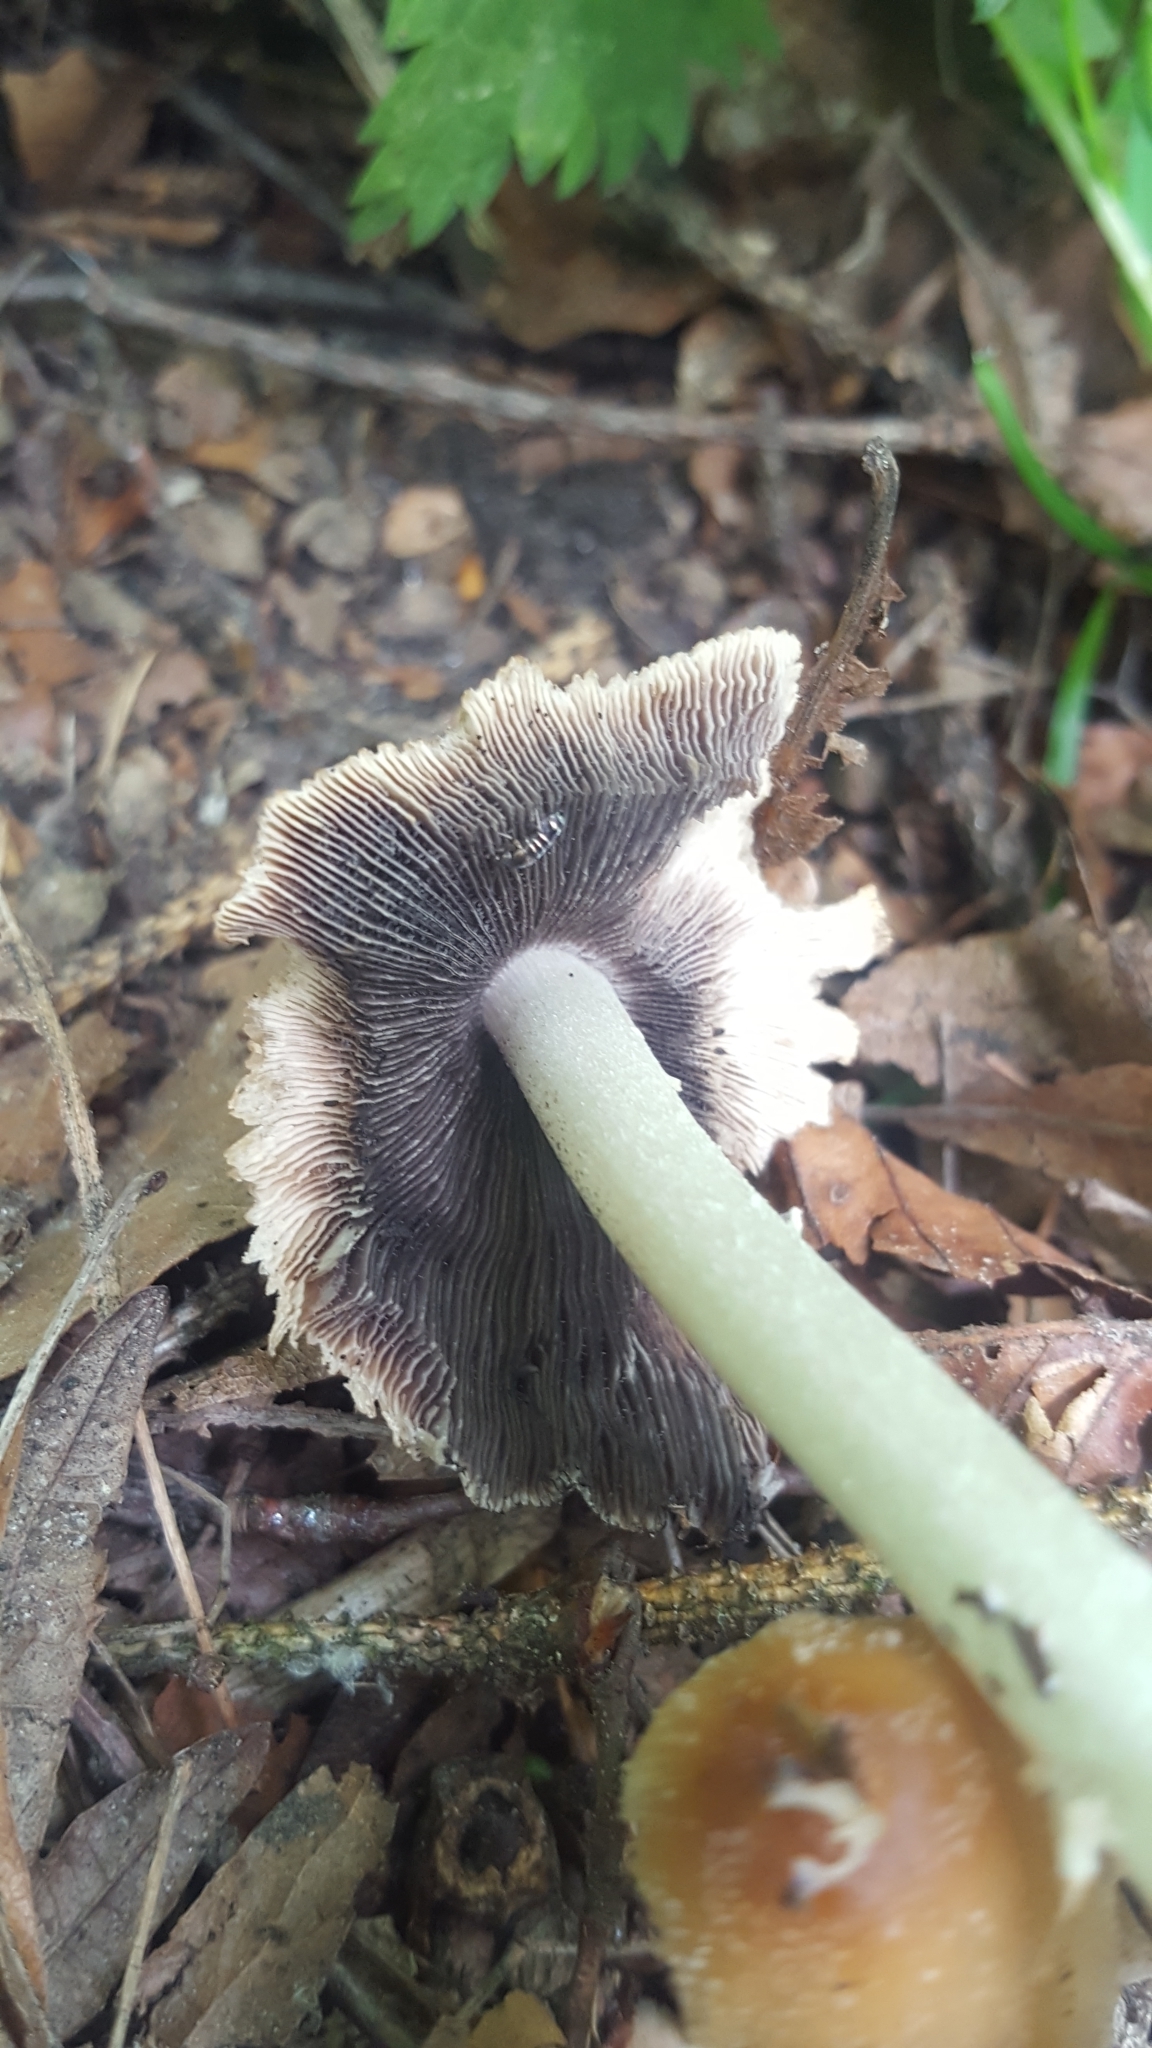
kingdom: Fungi
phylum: Basidiomycota
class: Agaricomycetes
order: Agaricales
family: Psathyrellaceae
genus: Coprinellus
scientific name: Coprinellus micaceus
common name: Glistening ink-cap
